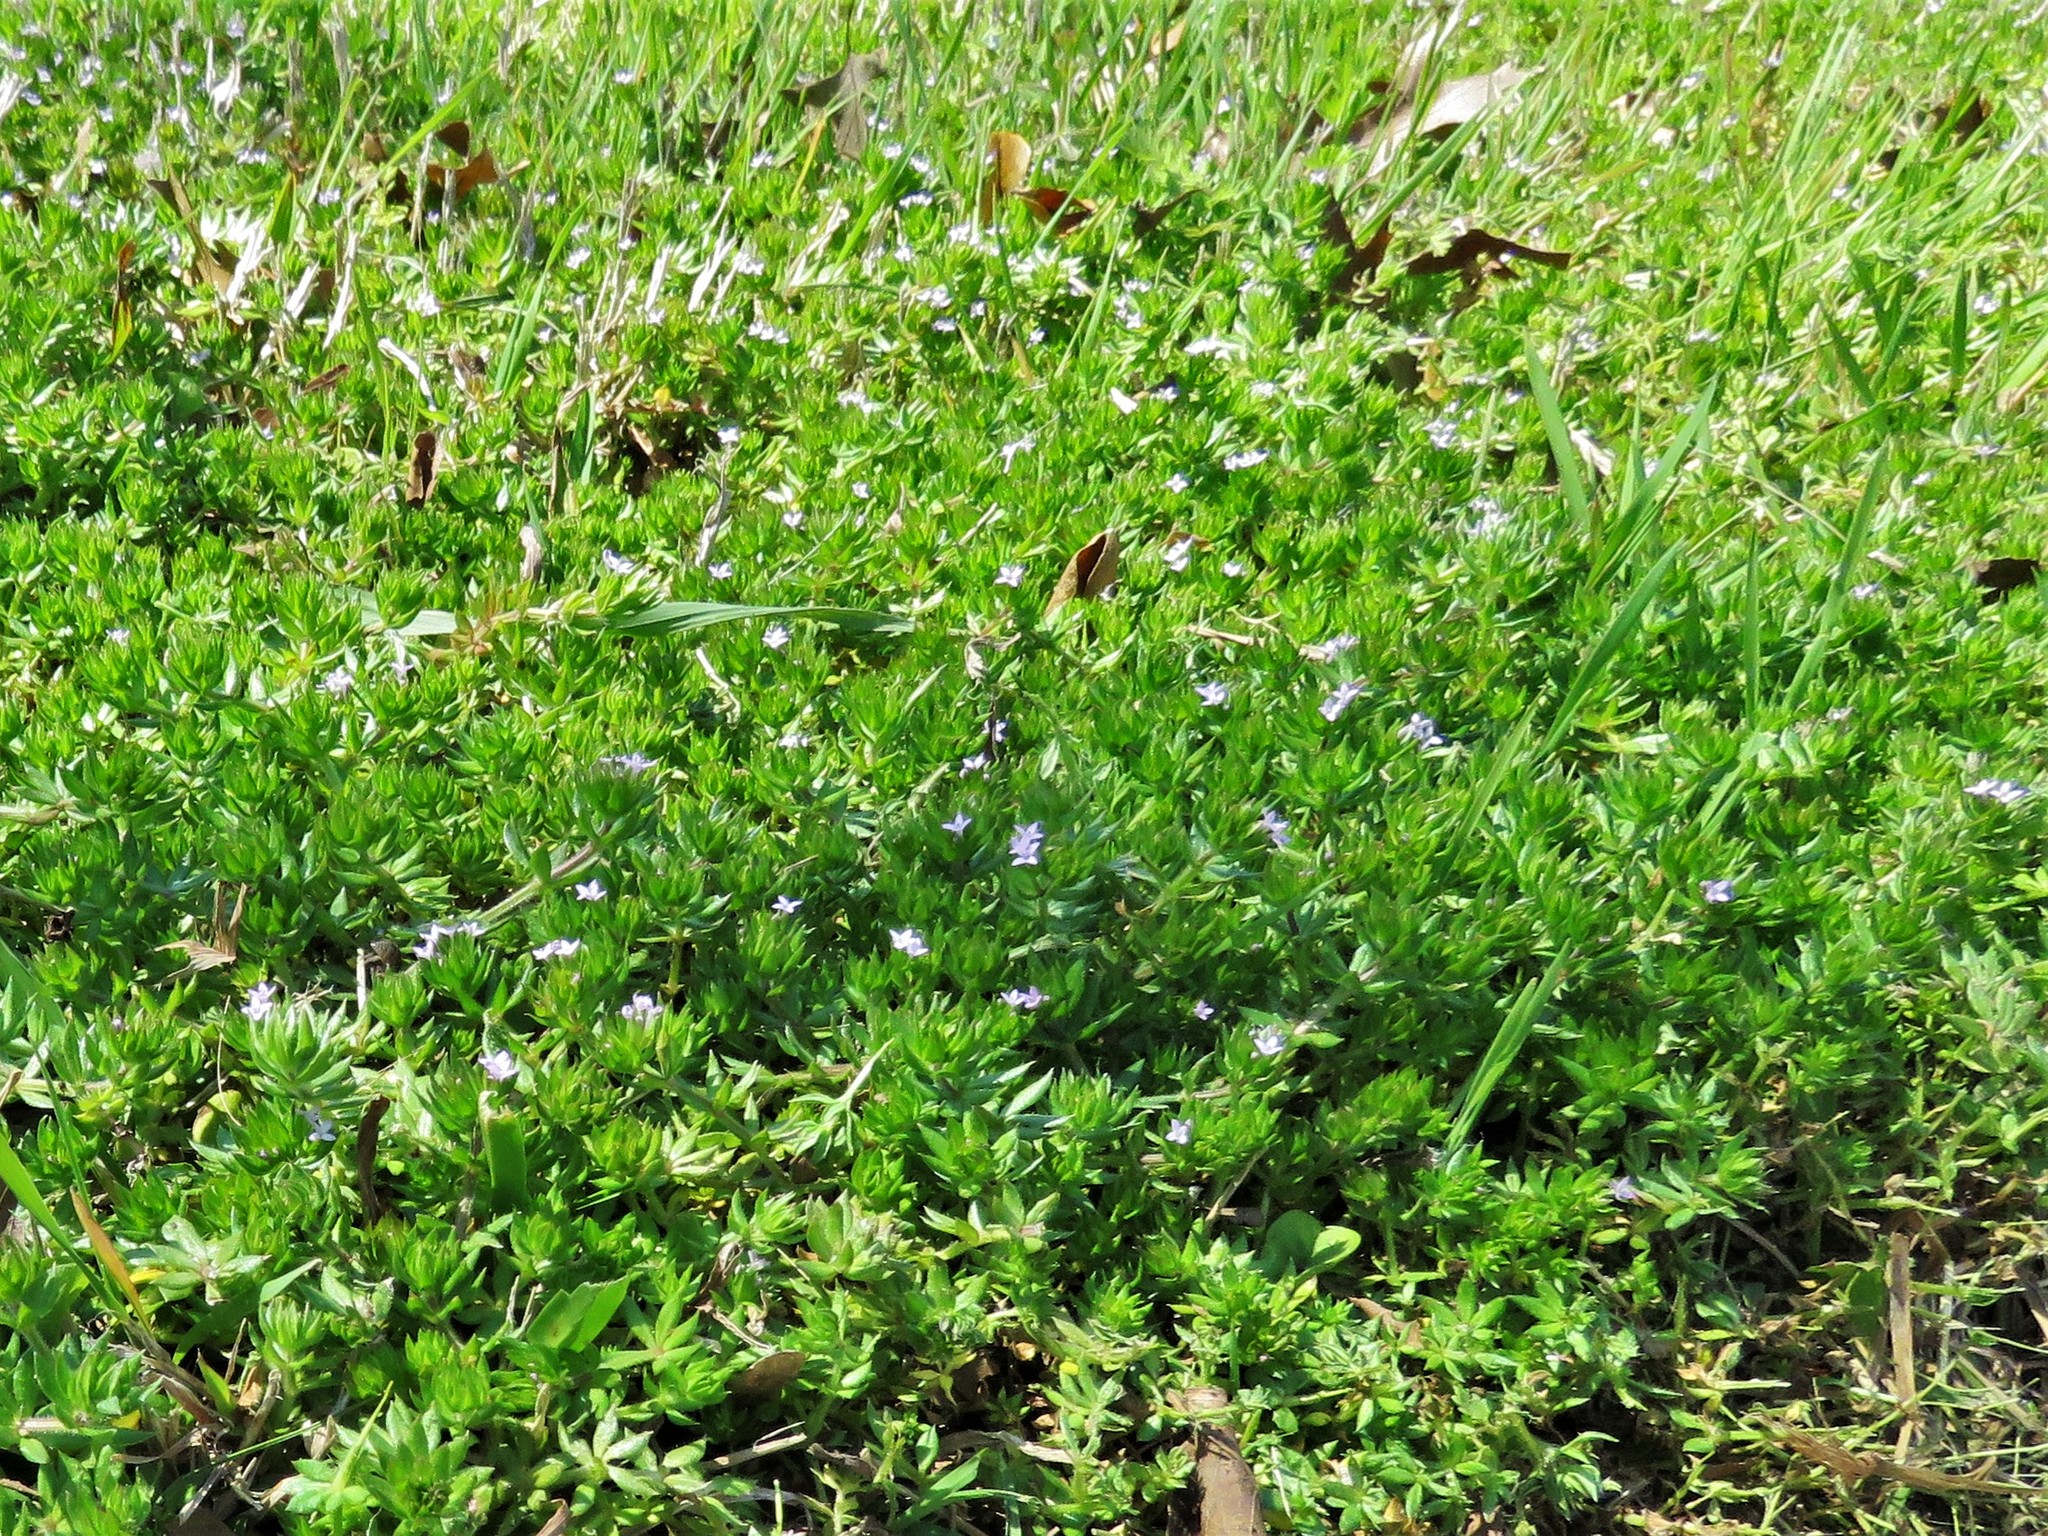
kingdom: Plantae
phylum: Tracheophyta
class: Magnoliopsida
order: Gentianales
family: Rubiaceae
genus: Sherardia
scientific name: Sherardia arvensis
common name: Field madder
